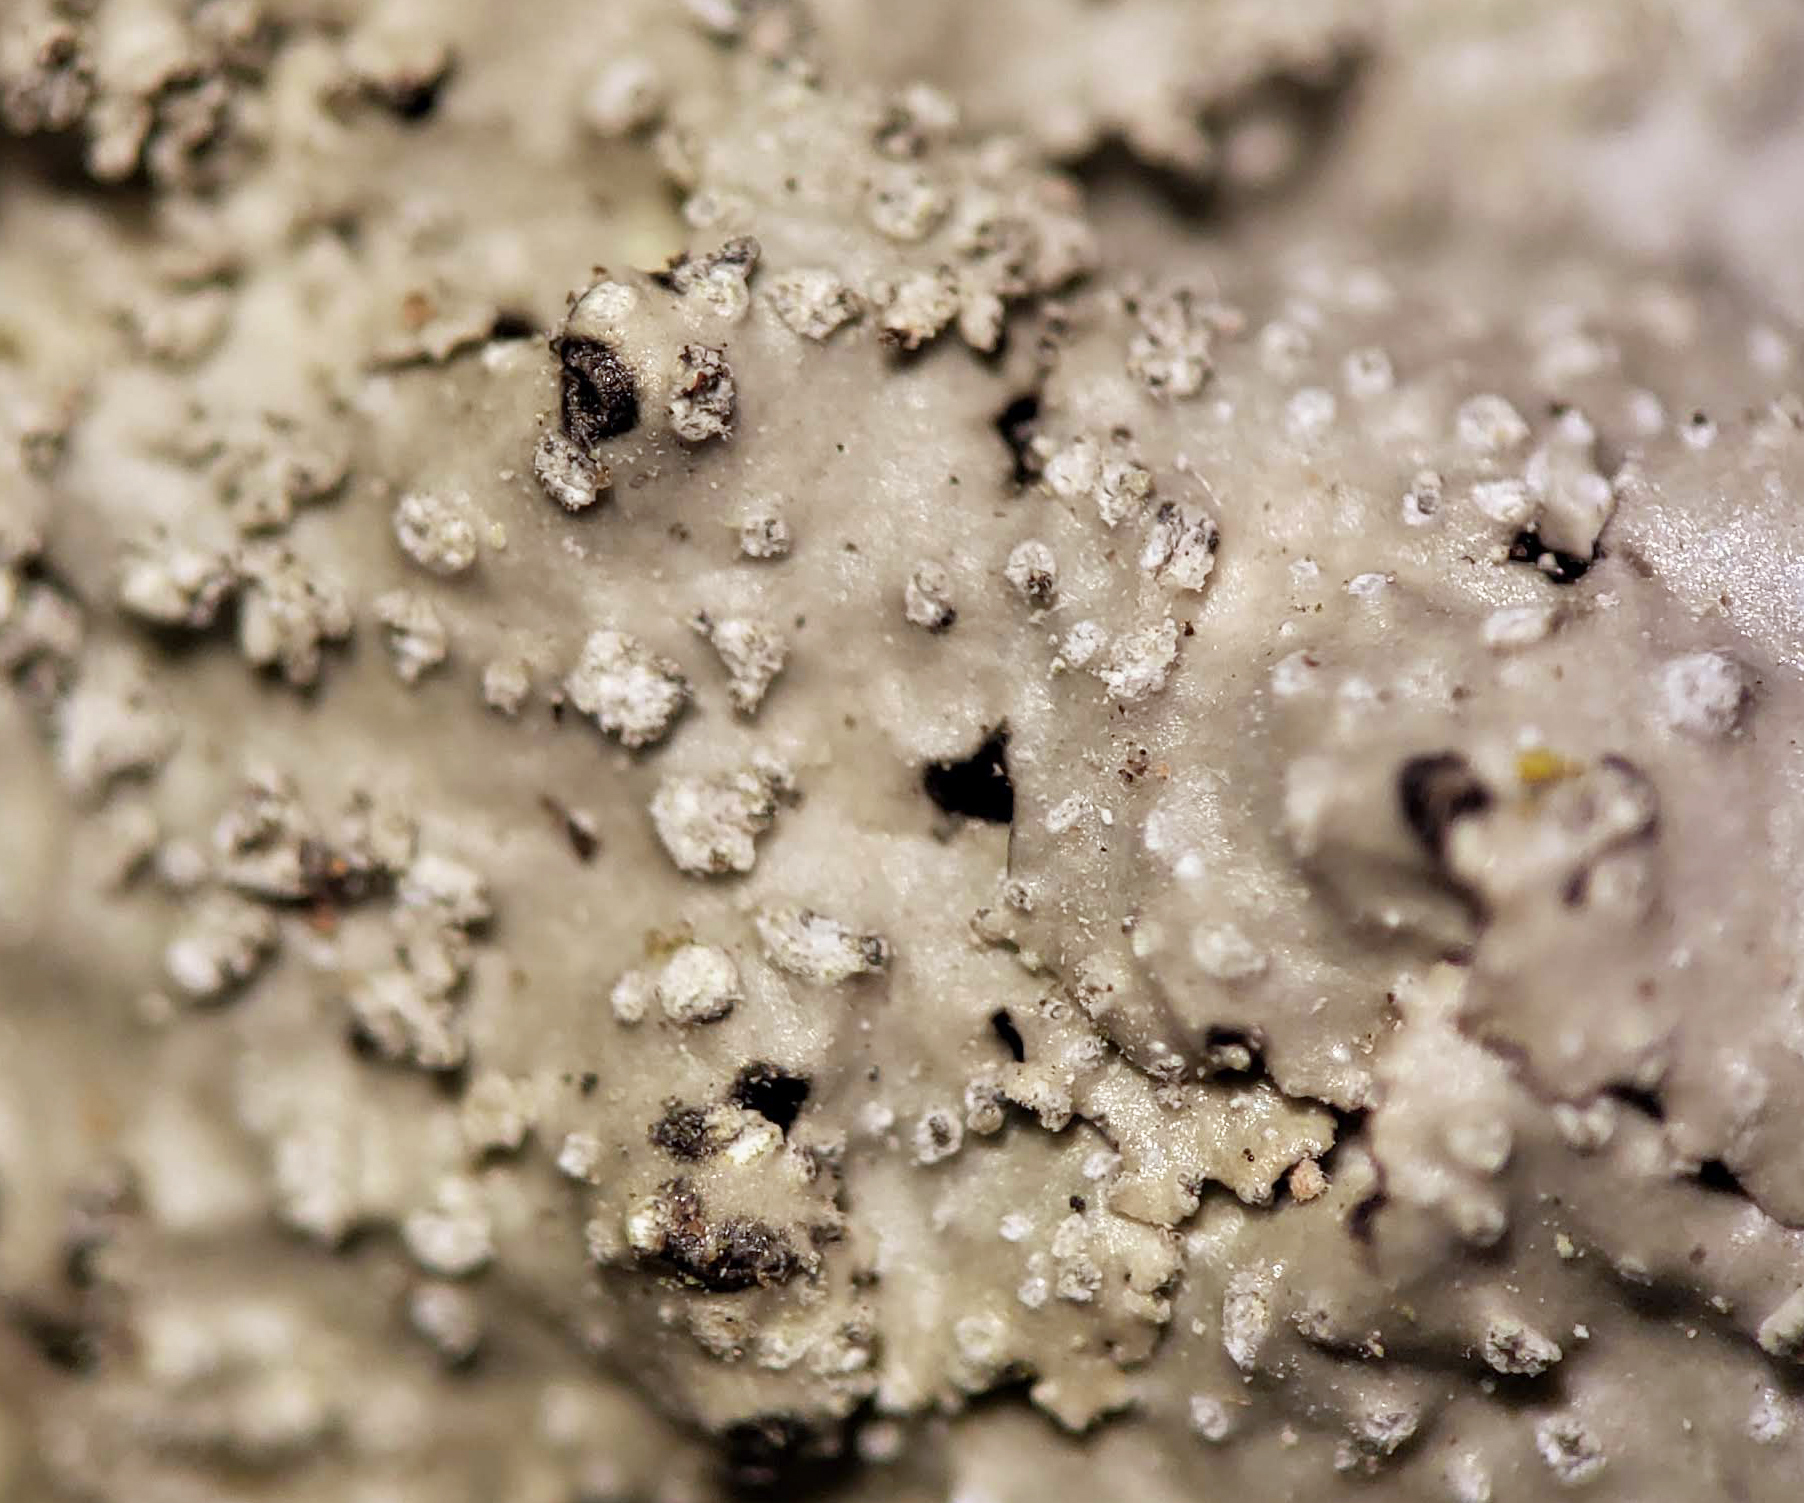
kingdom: Fungi
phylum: Ascomycota
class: Lecanoromycetes
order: Lecanorales
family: Parmeliaceae
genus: Punctelia
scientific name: Punctelia missouriensis
